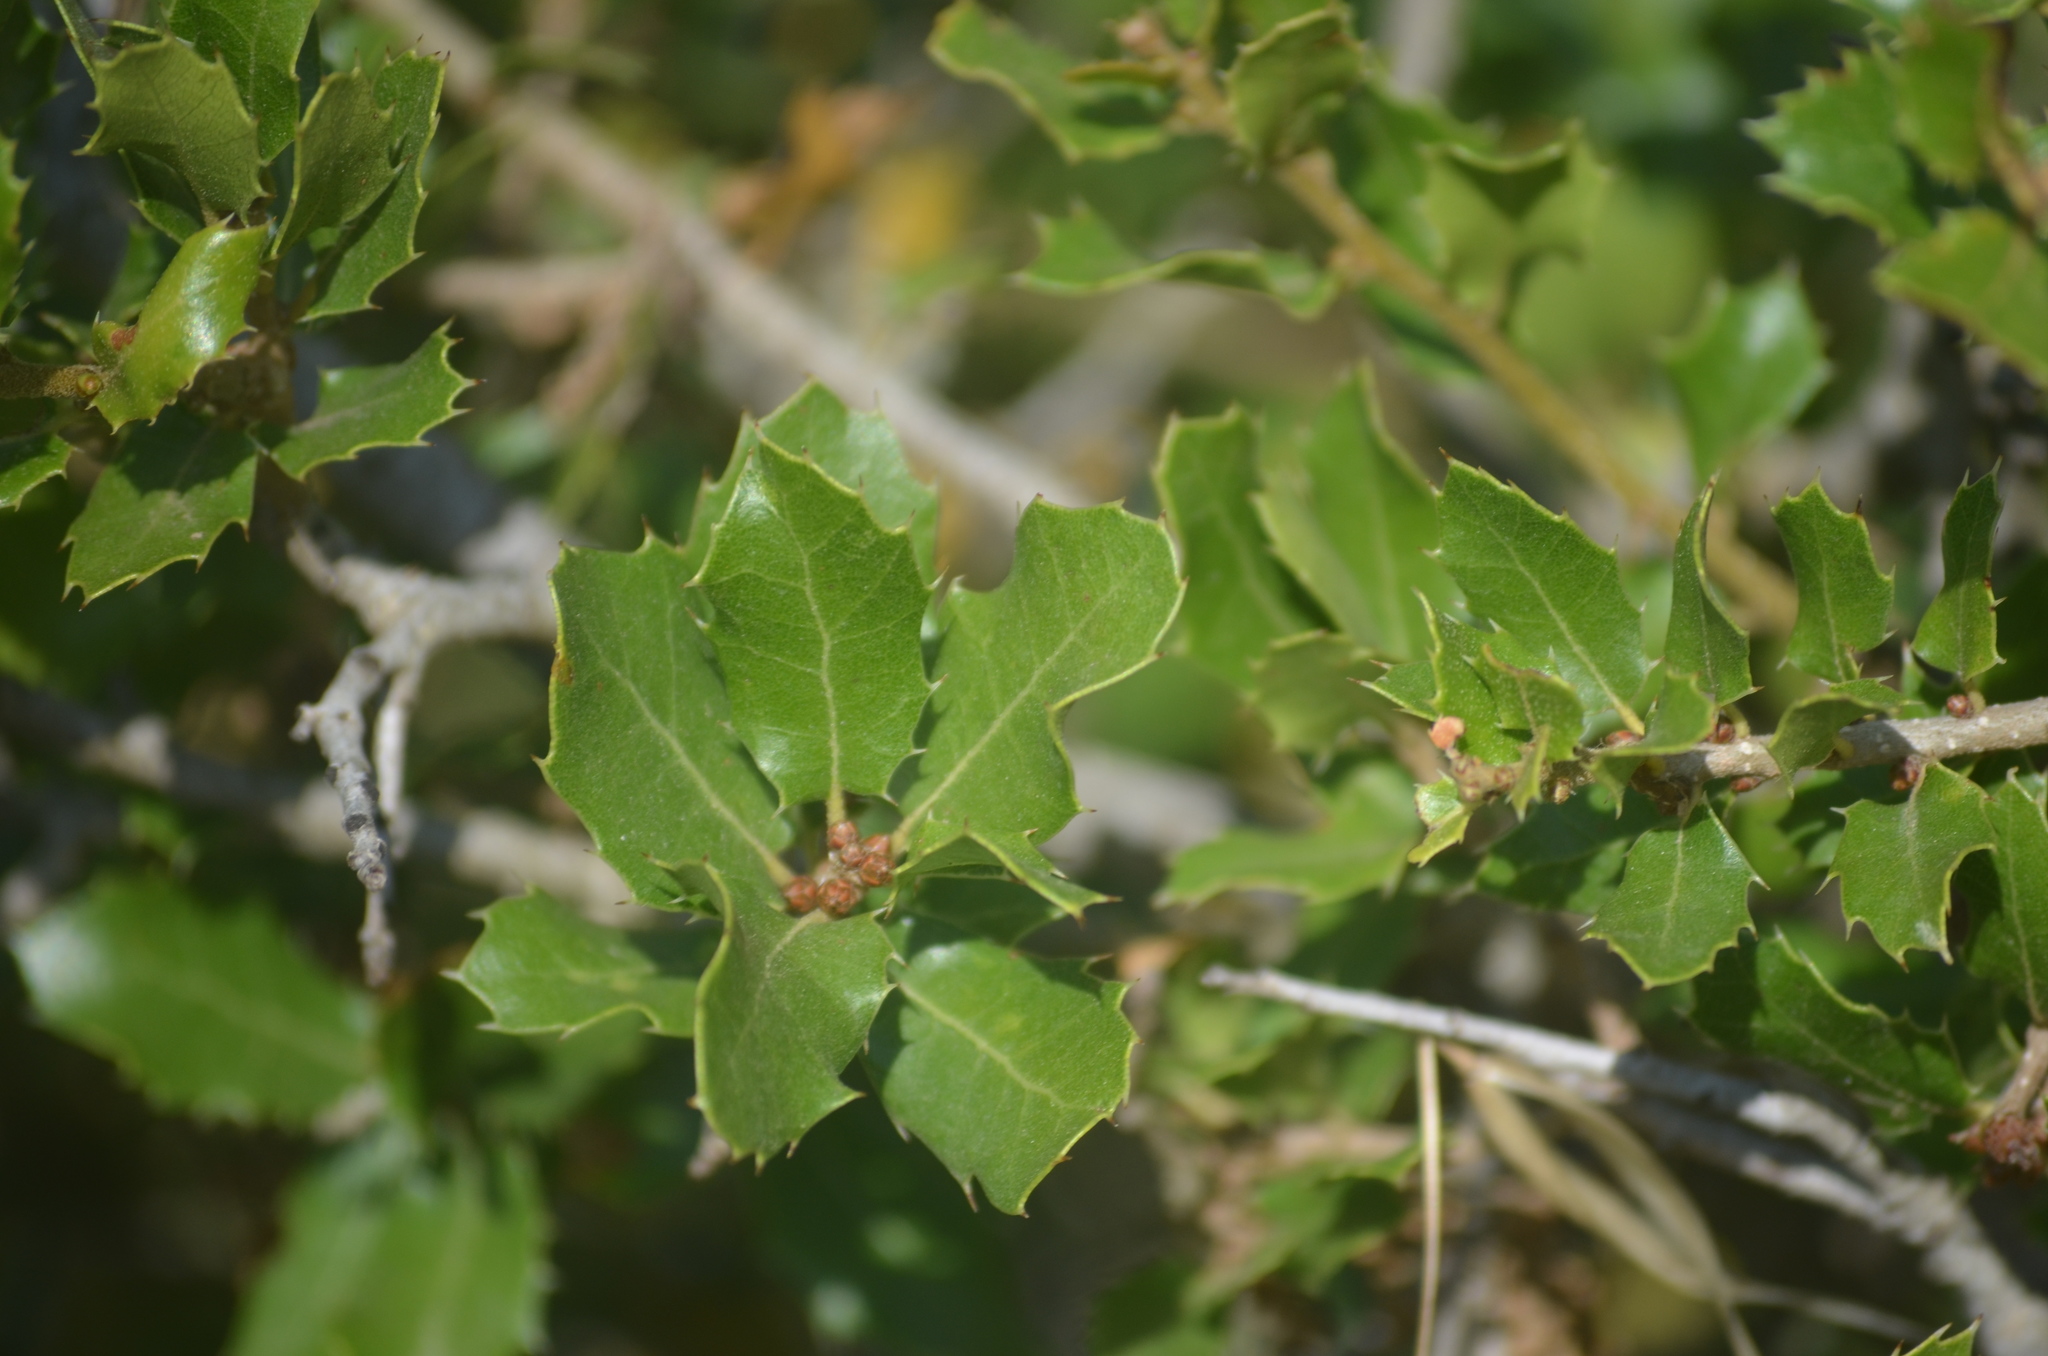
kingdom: Plantae
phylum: Tracheophyta
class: Magnoliopsida
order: Fagales
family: Fagaceae
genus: Quercus
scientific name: Quercus coccifera
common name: Kermes oak
